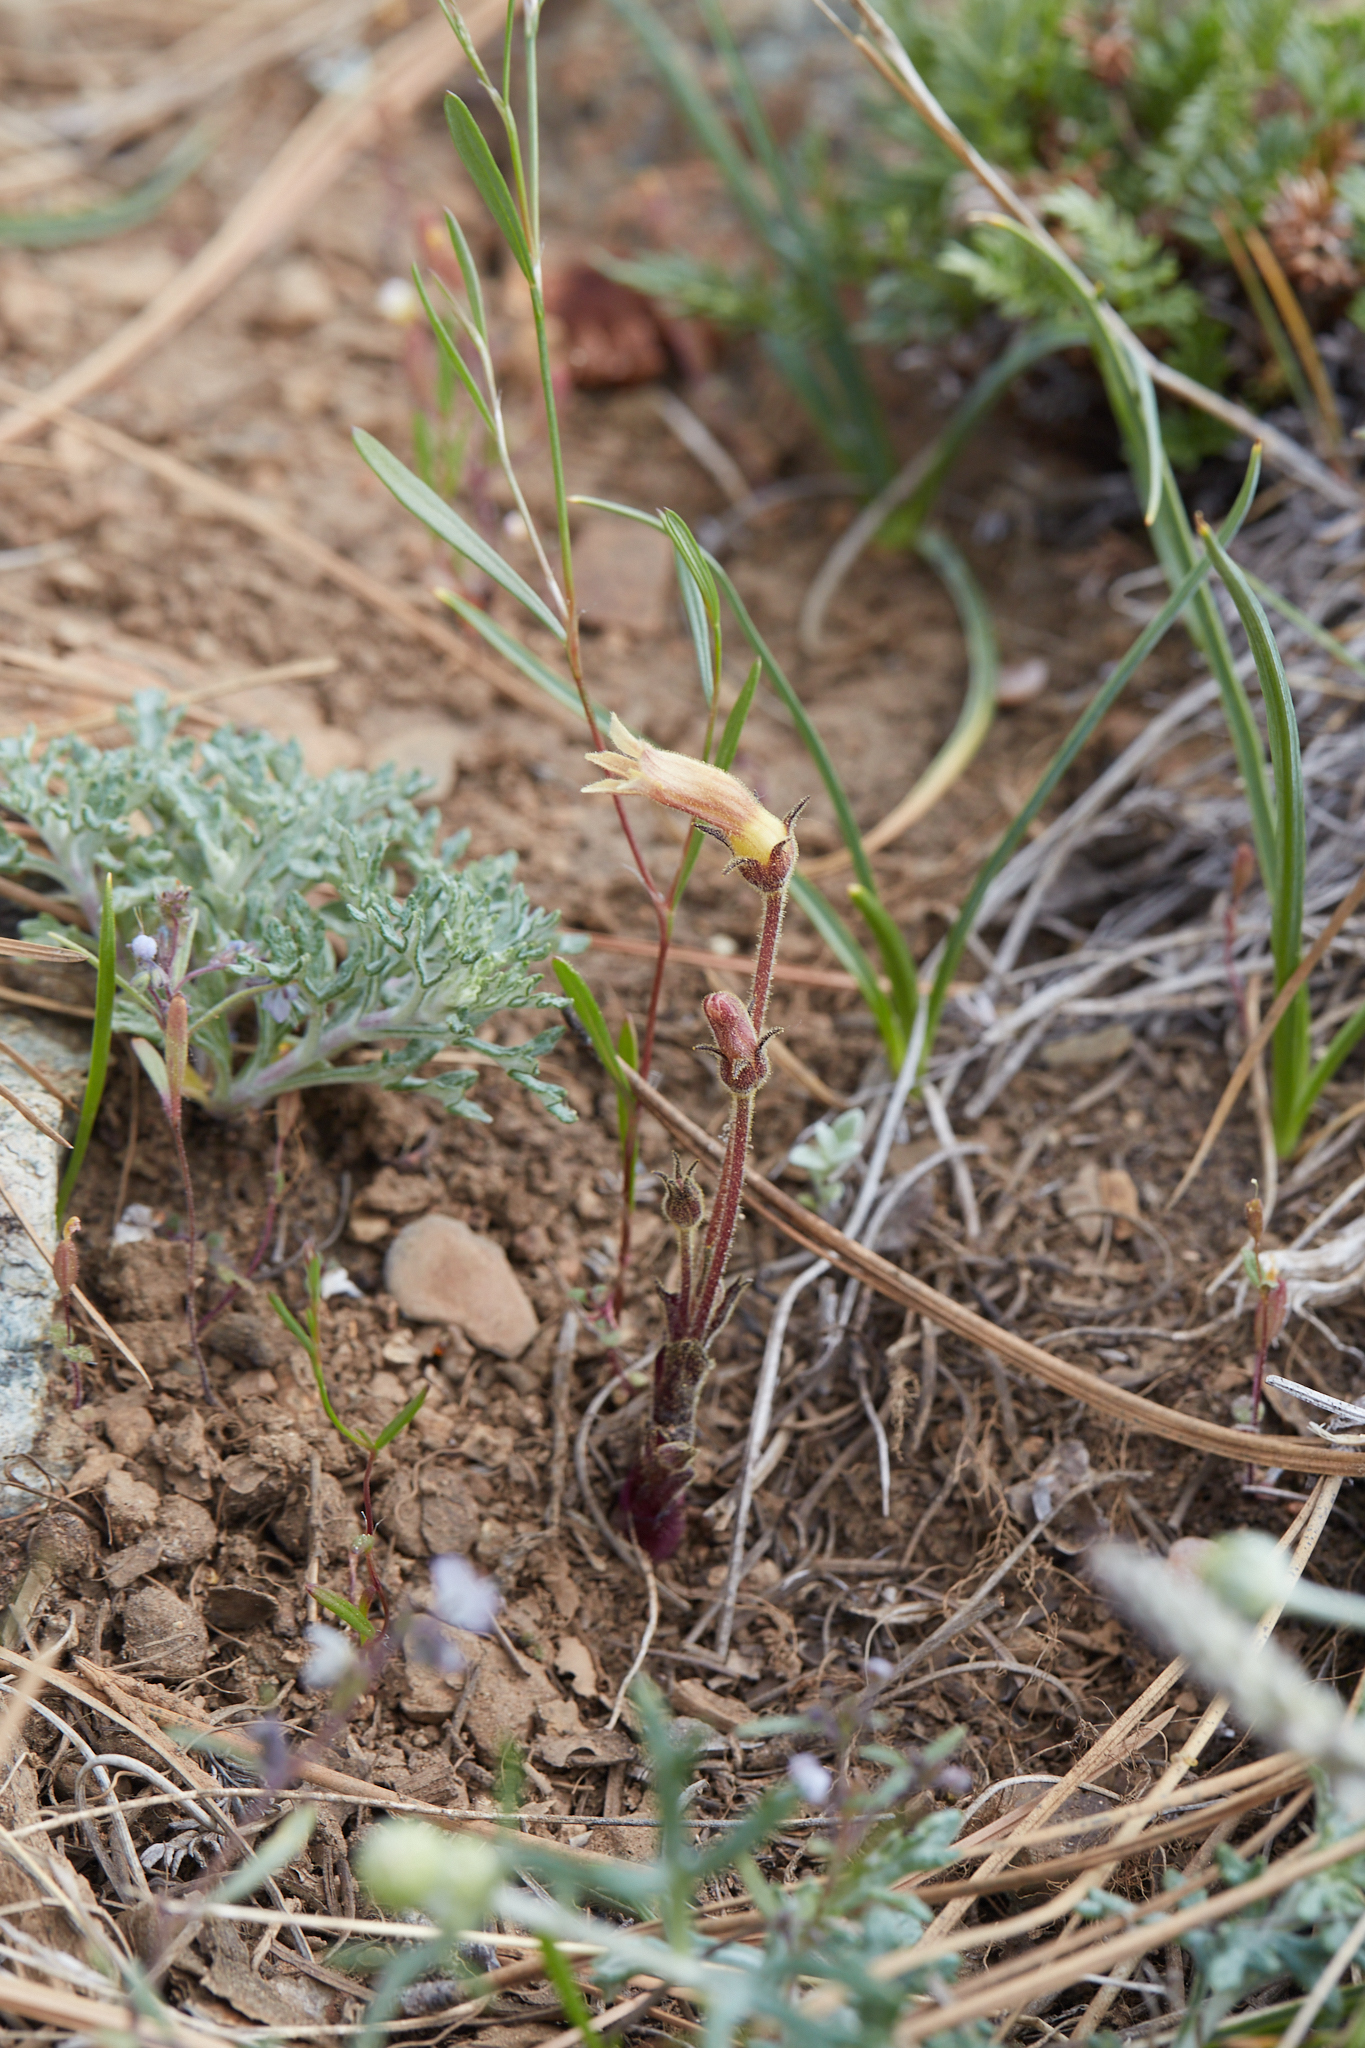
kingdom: Plantae
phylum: Tracheophyta
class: Magnoliopsida
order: Lamiales
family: Orobanchaceae
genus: Aphyllon
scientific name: Aphyllon franciscanum
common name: San francisco broomrape
